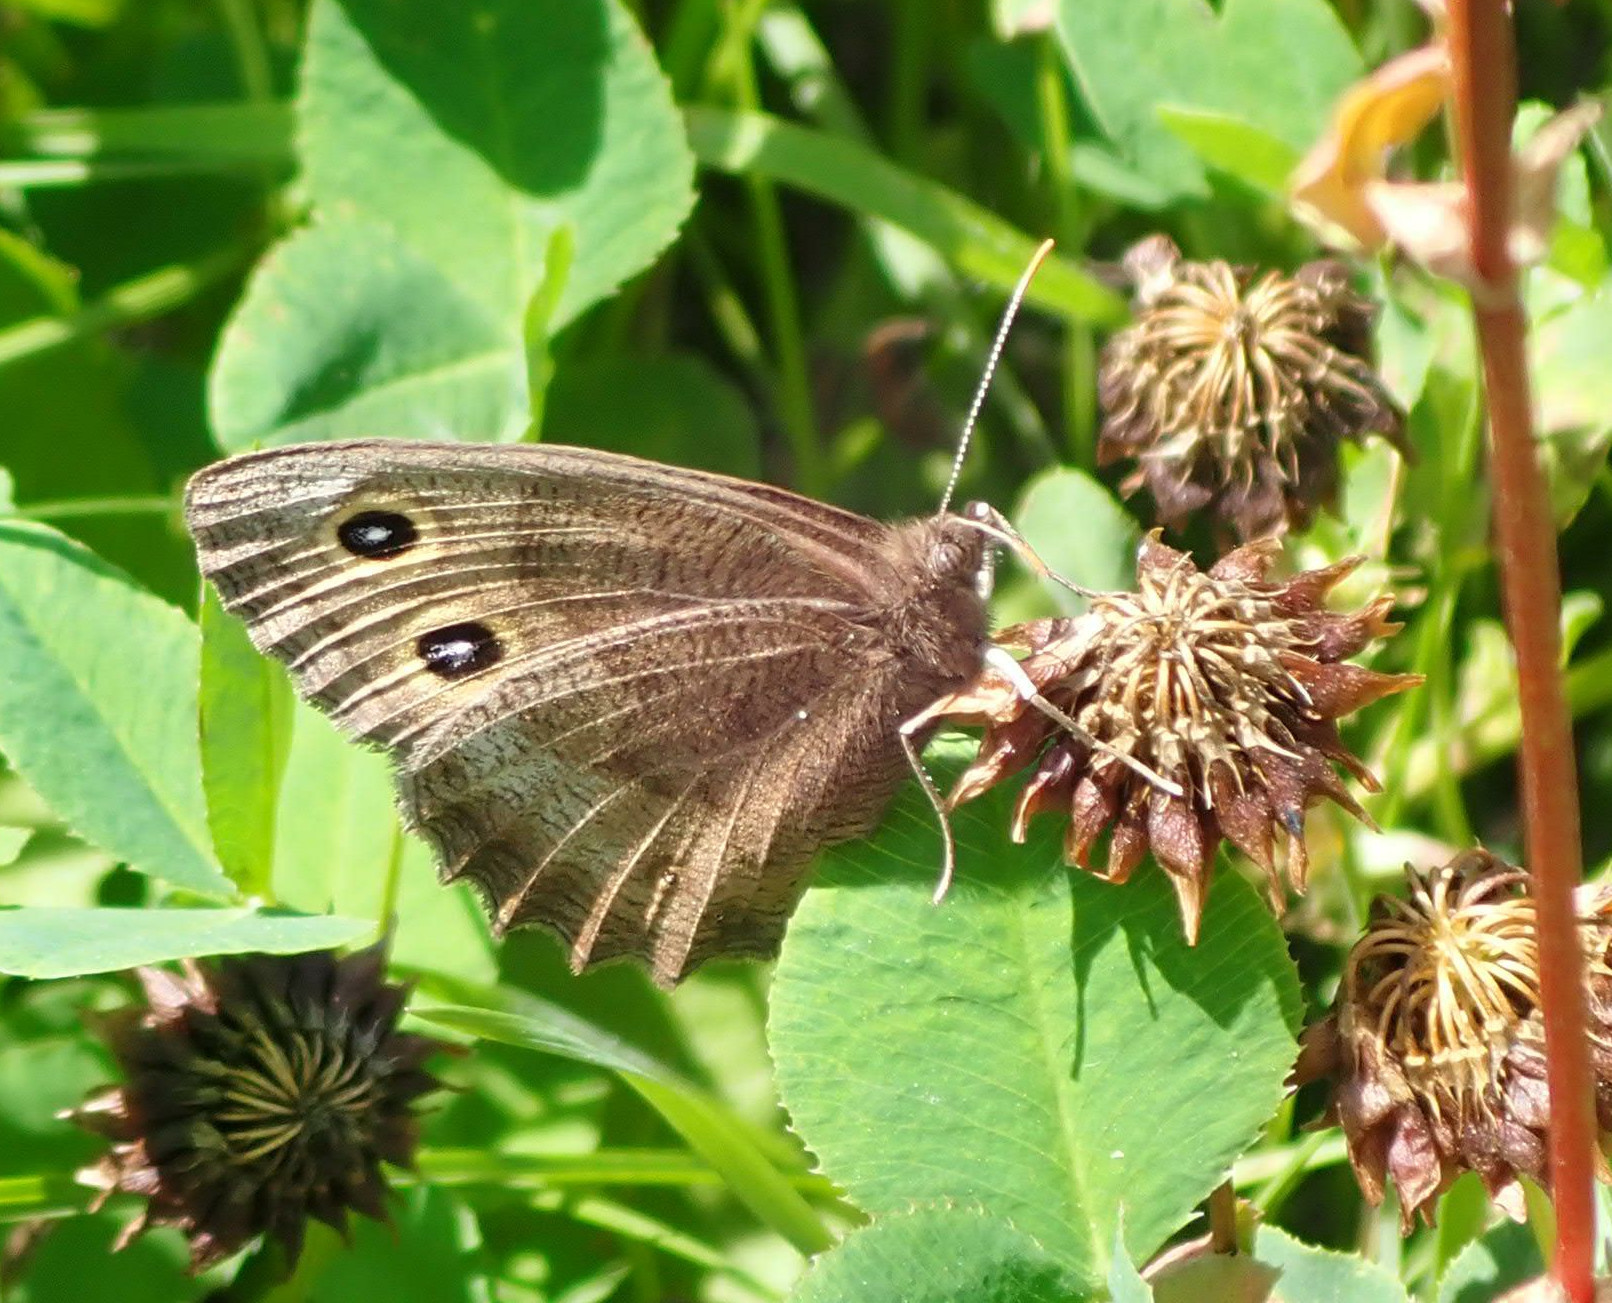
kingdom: Animalia
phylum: Arthropoda
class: Insecta
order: Lepidoptera
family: Nymphalidae
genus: Cercyonis
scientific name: Cercyonis pegala
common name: Common wood-nymph
